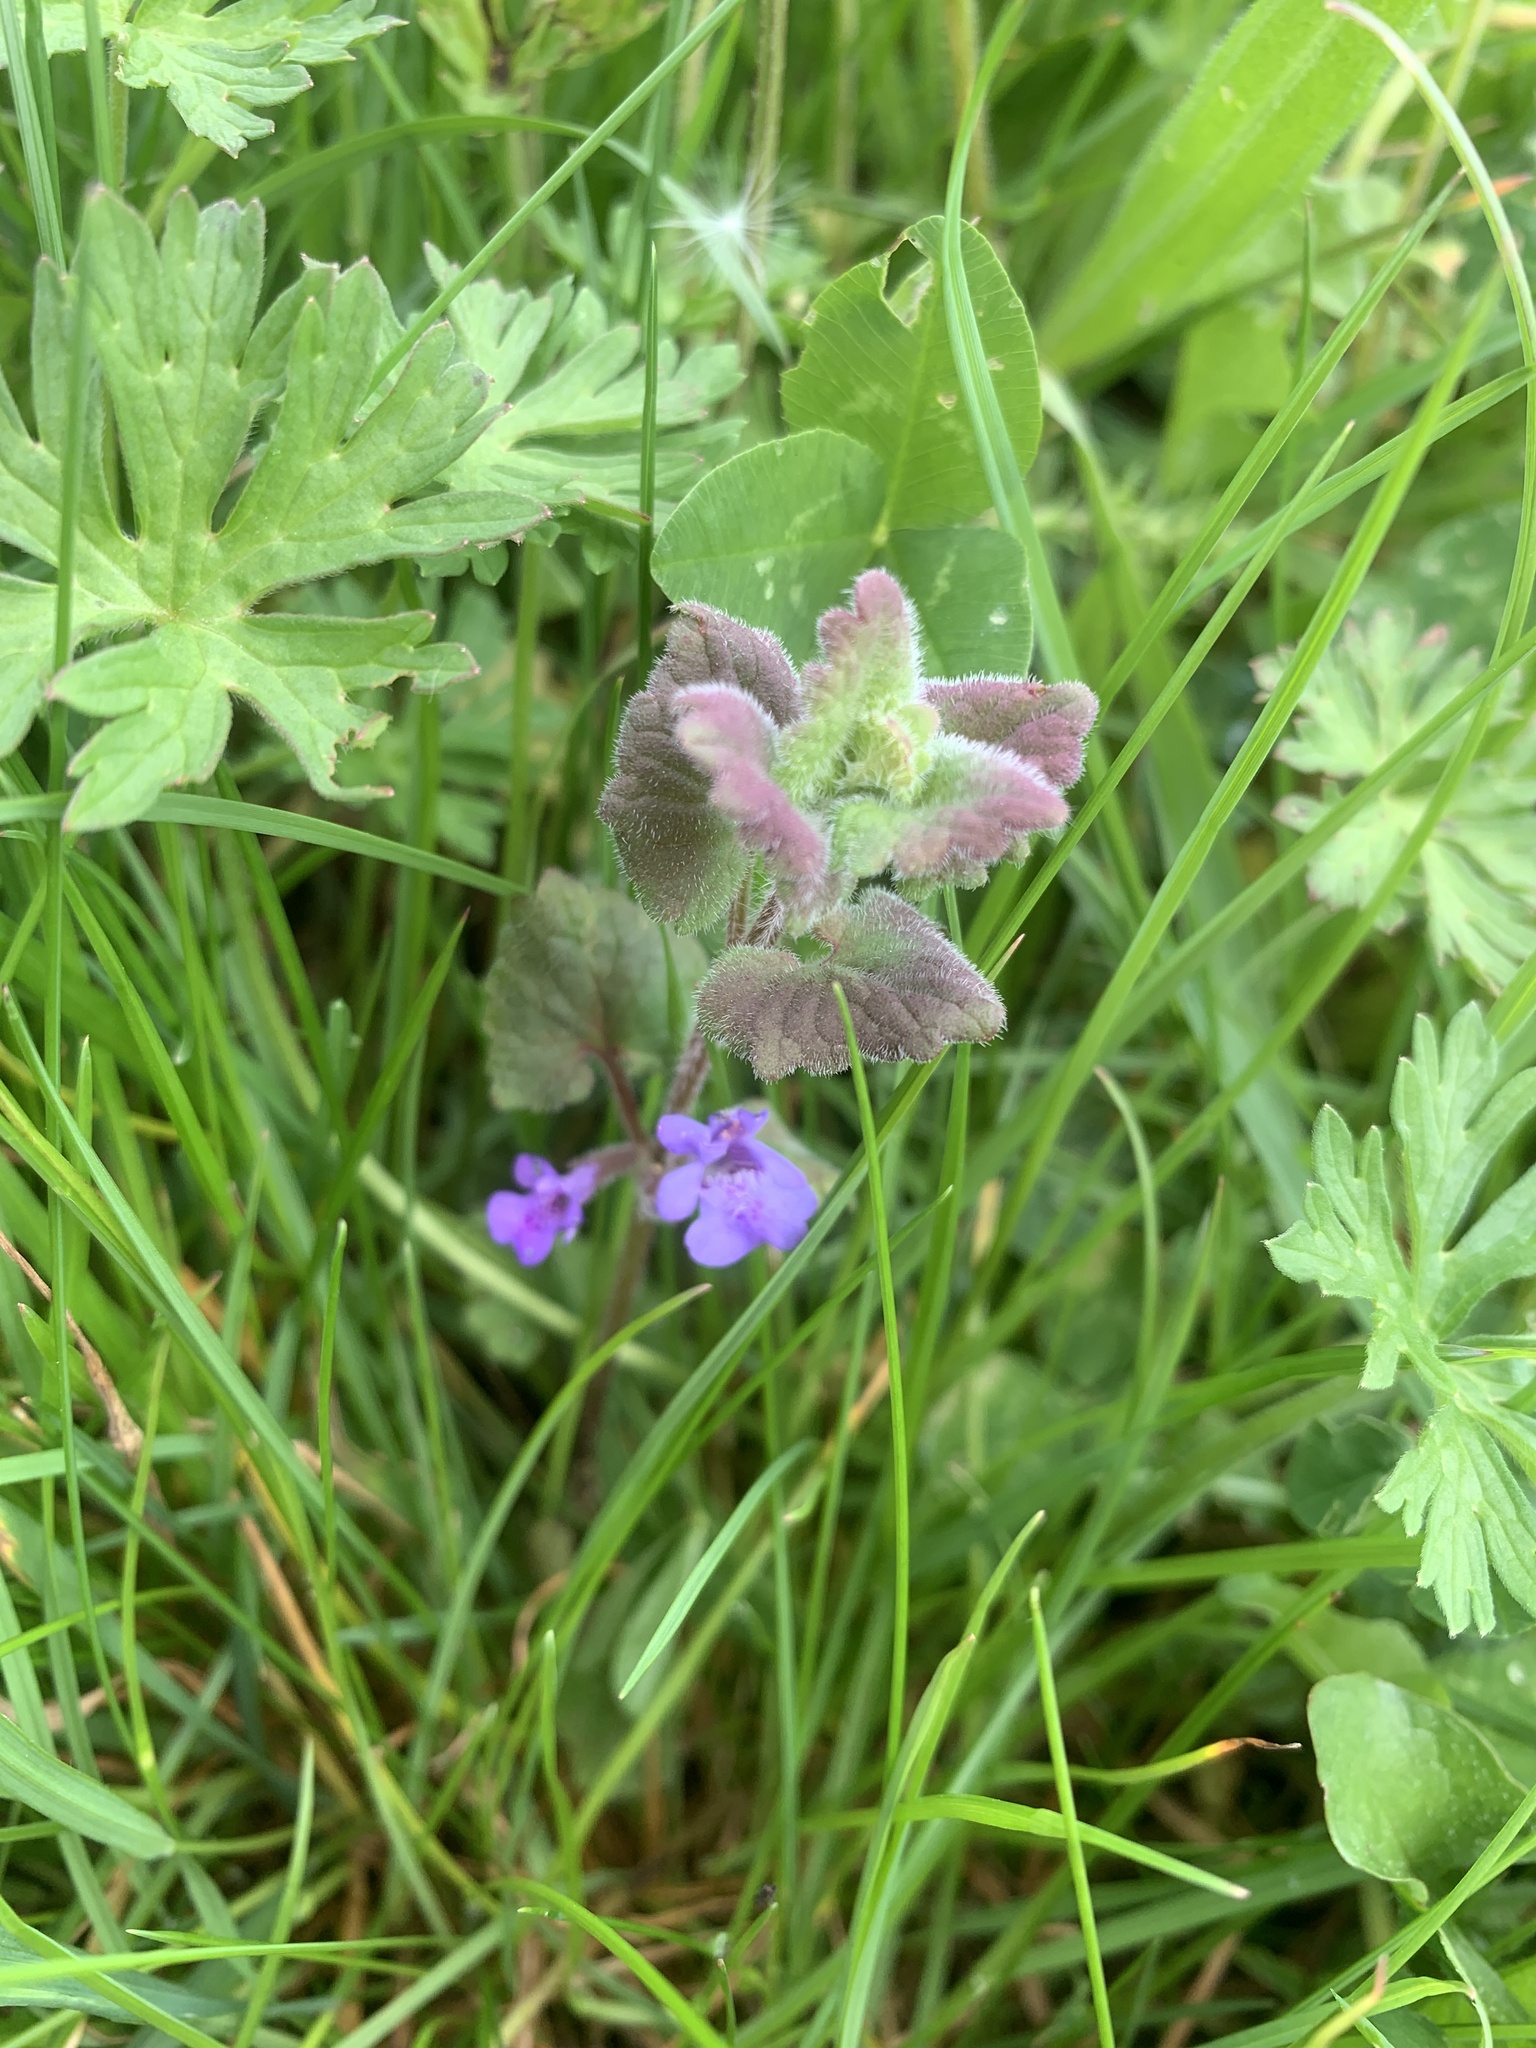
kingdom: Plantae
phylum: Tracheophyta
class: Magnoliopsida
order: Lamiales
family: Lamiaceae
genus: Glechoma
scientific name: Glechoma hederacea
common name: Ground ivy
